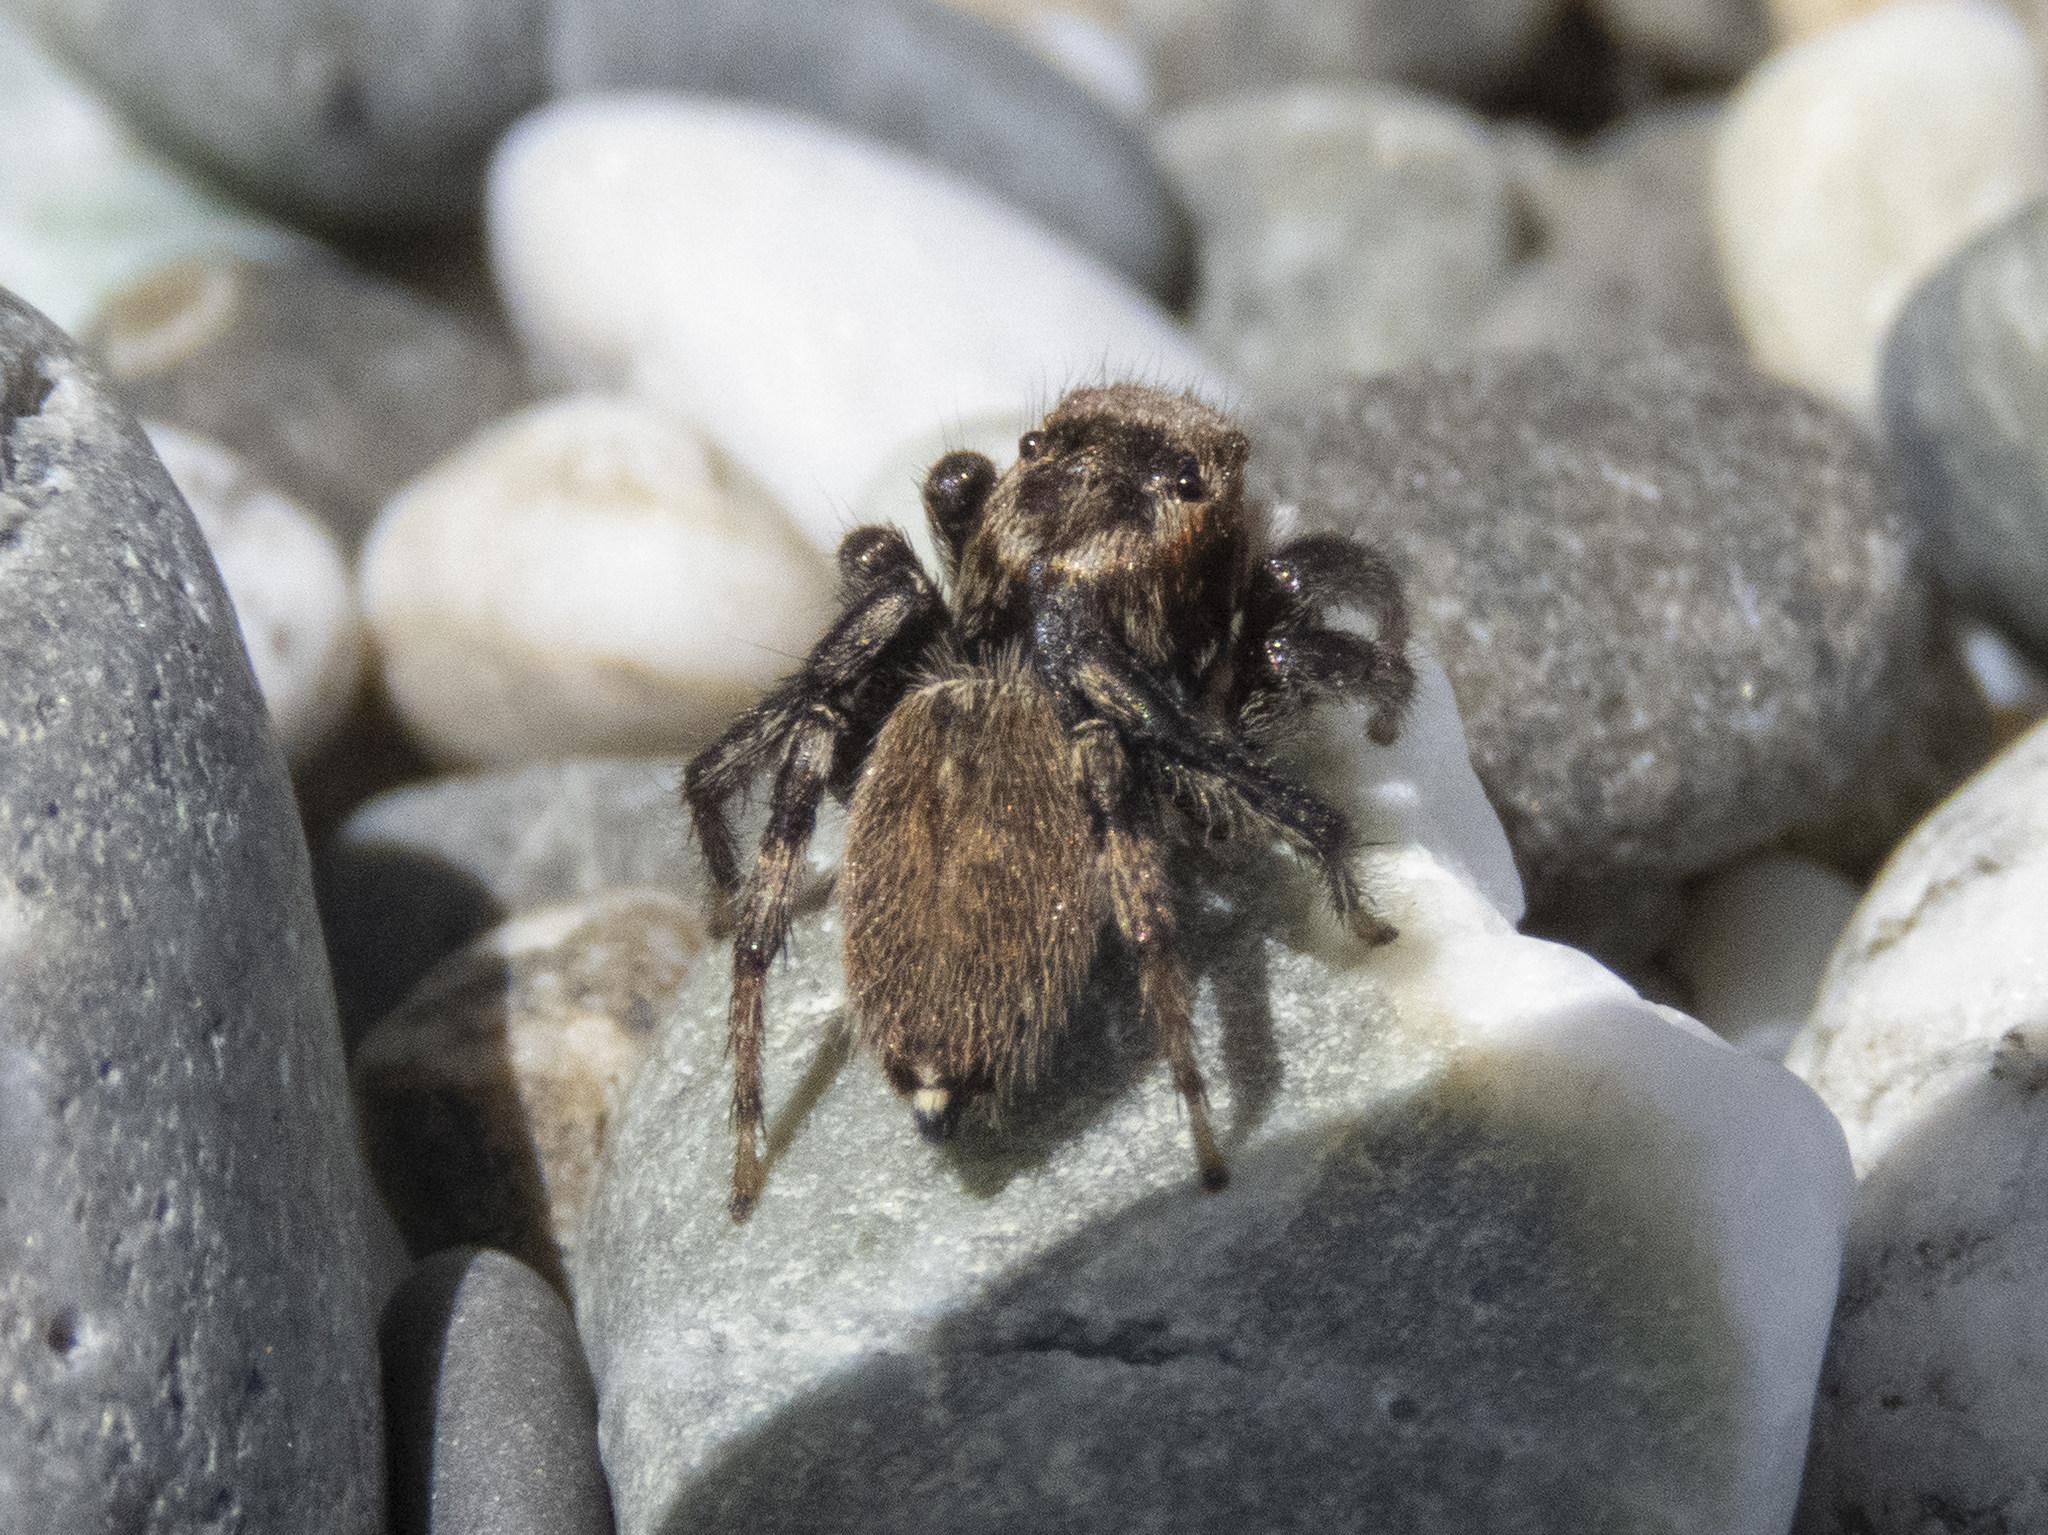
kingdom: Animalia
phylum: Arthropoda
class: Arachnida
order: Araneae
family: Salticidae
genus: Maratus
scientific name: Maratus griseus
